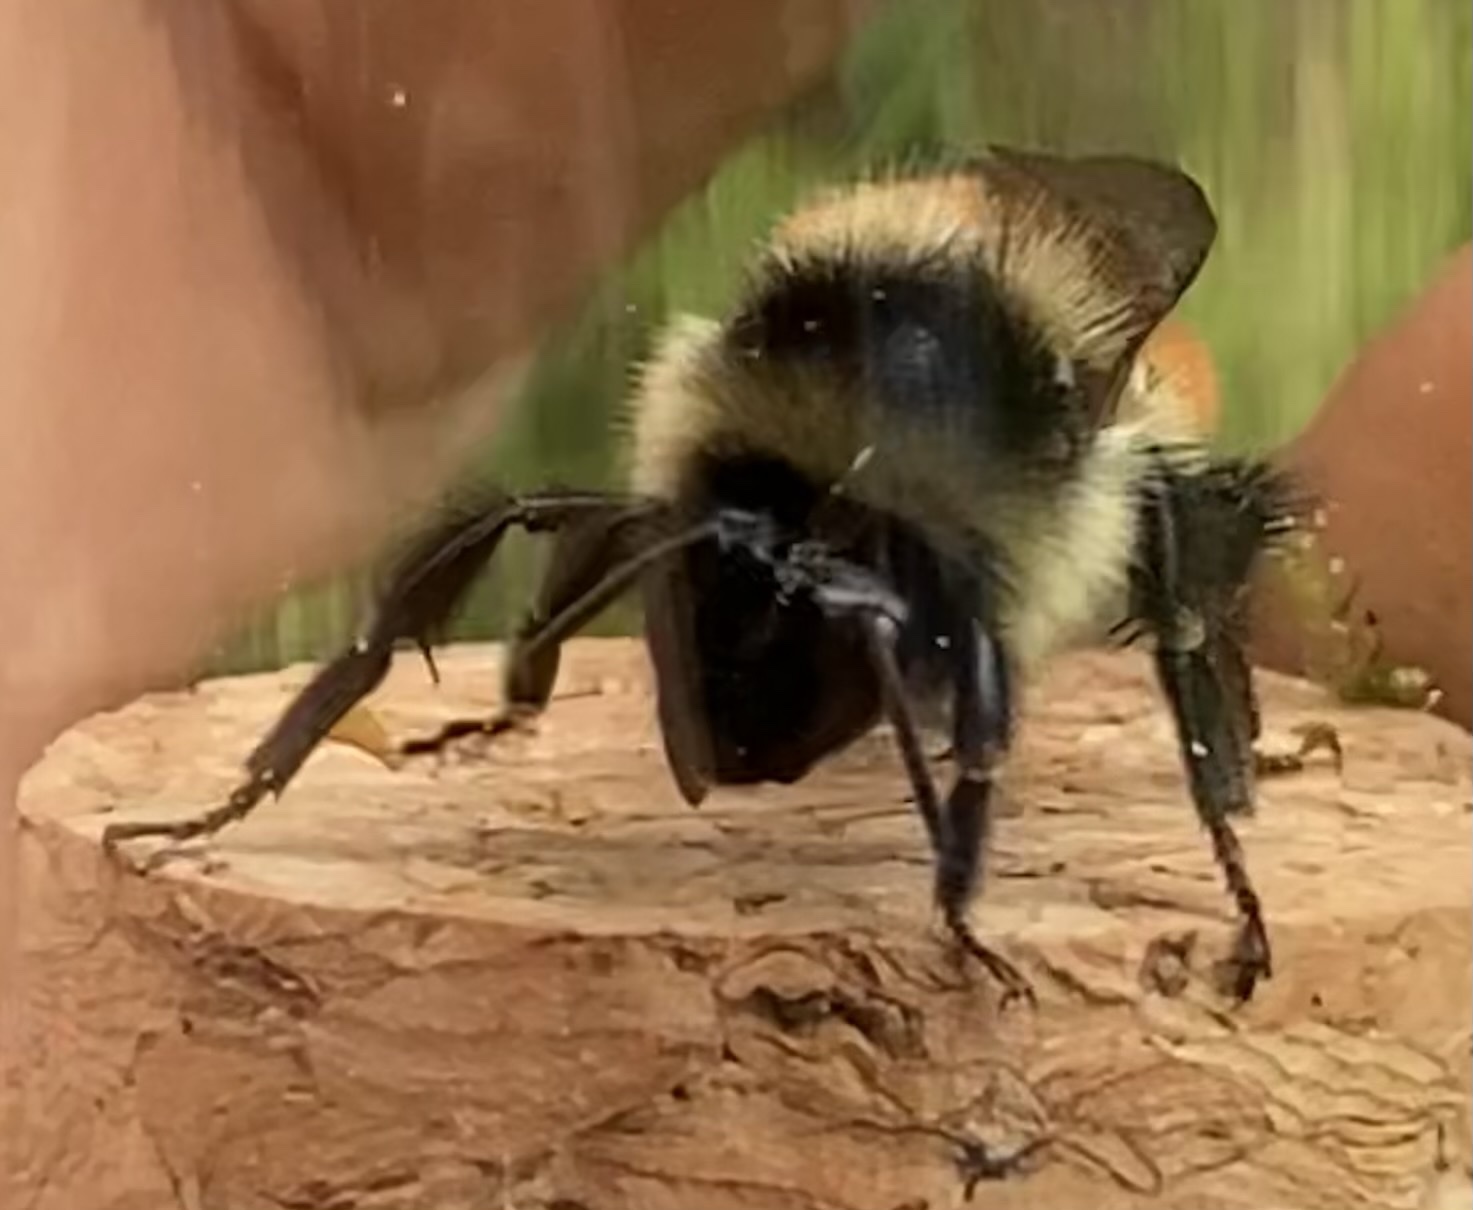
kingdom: Animalia
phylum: Arthropoda
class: Insecta
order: Hymenoptera
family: Apidae
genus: Bombus
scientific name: Bombus ternarius
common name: Tri-colored bumble bee
